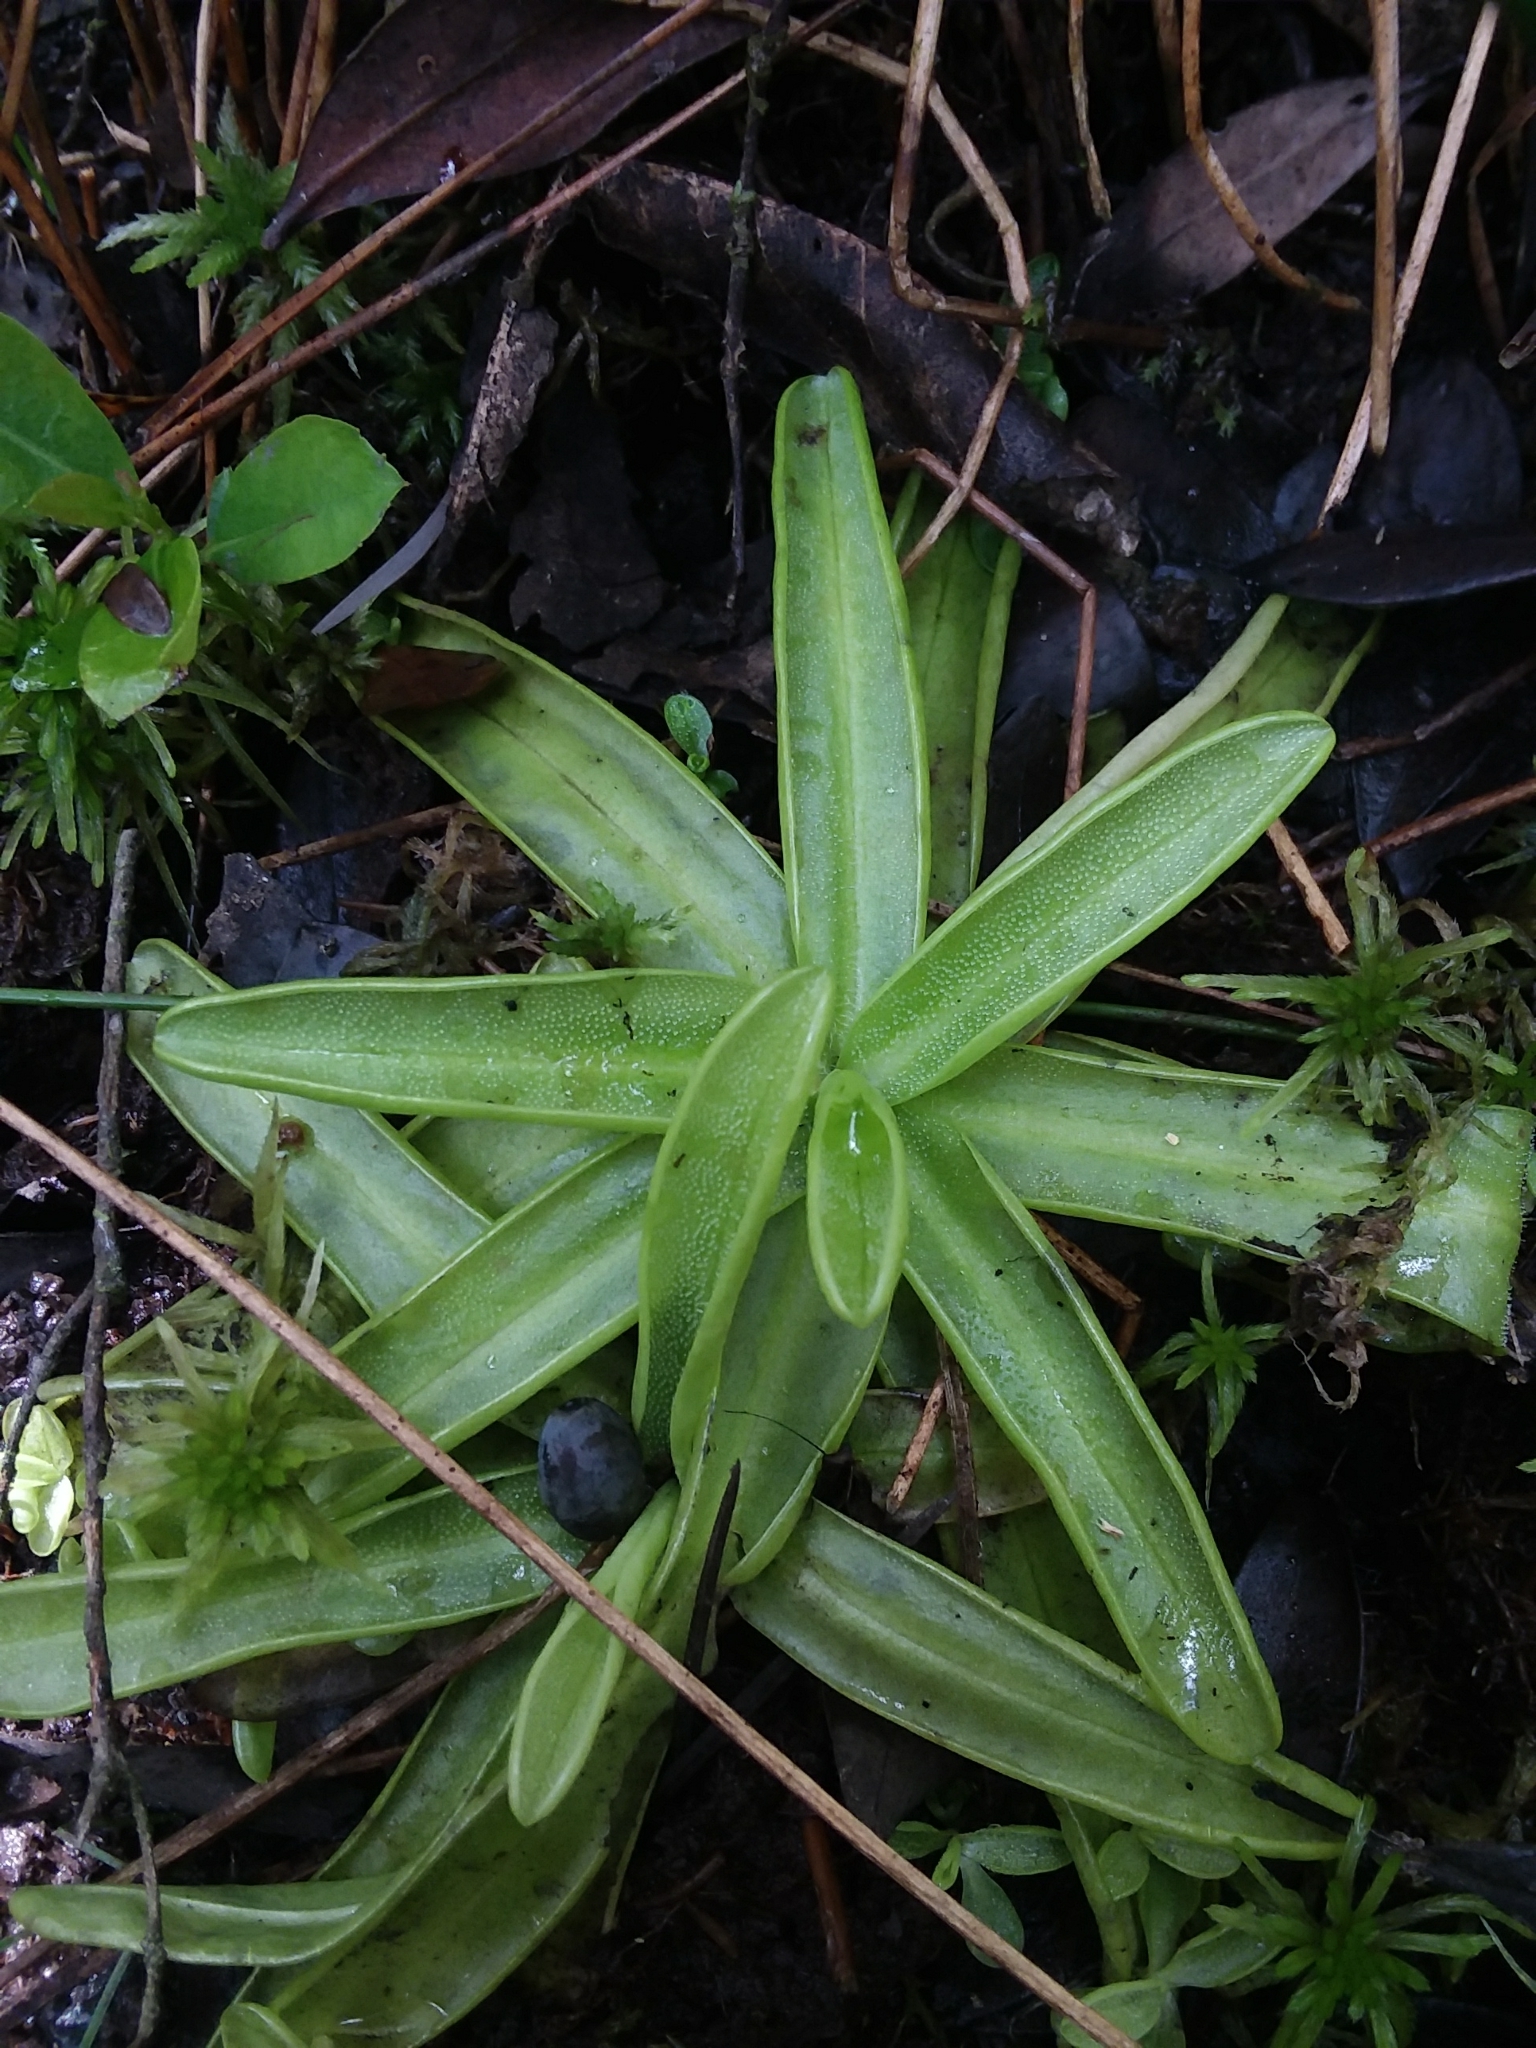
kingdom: Plantae
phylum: Tracheophyta
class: Magnoliopsida
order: Lamiales
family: Lentibulariaceae
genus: Pinguicula
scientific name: Pinguicula primuliflora
